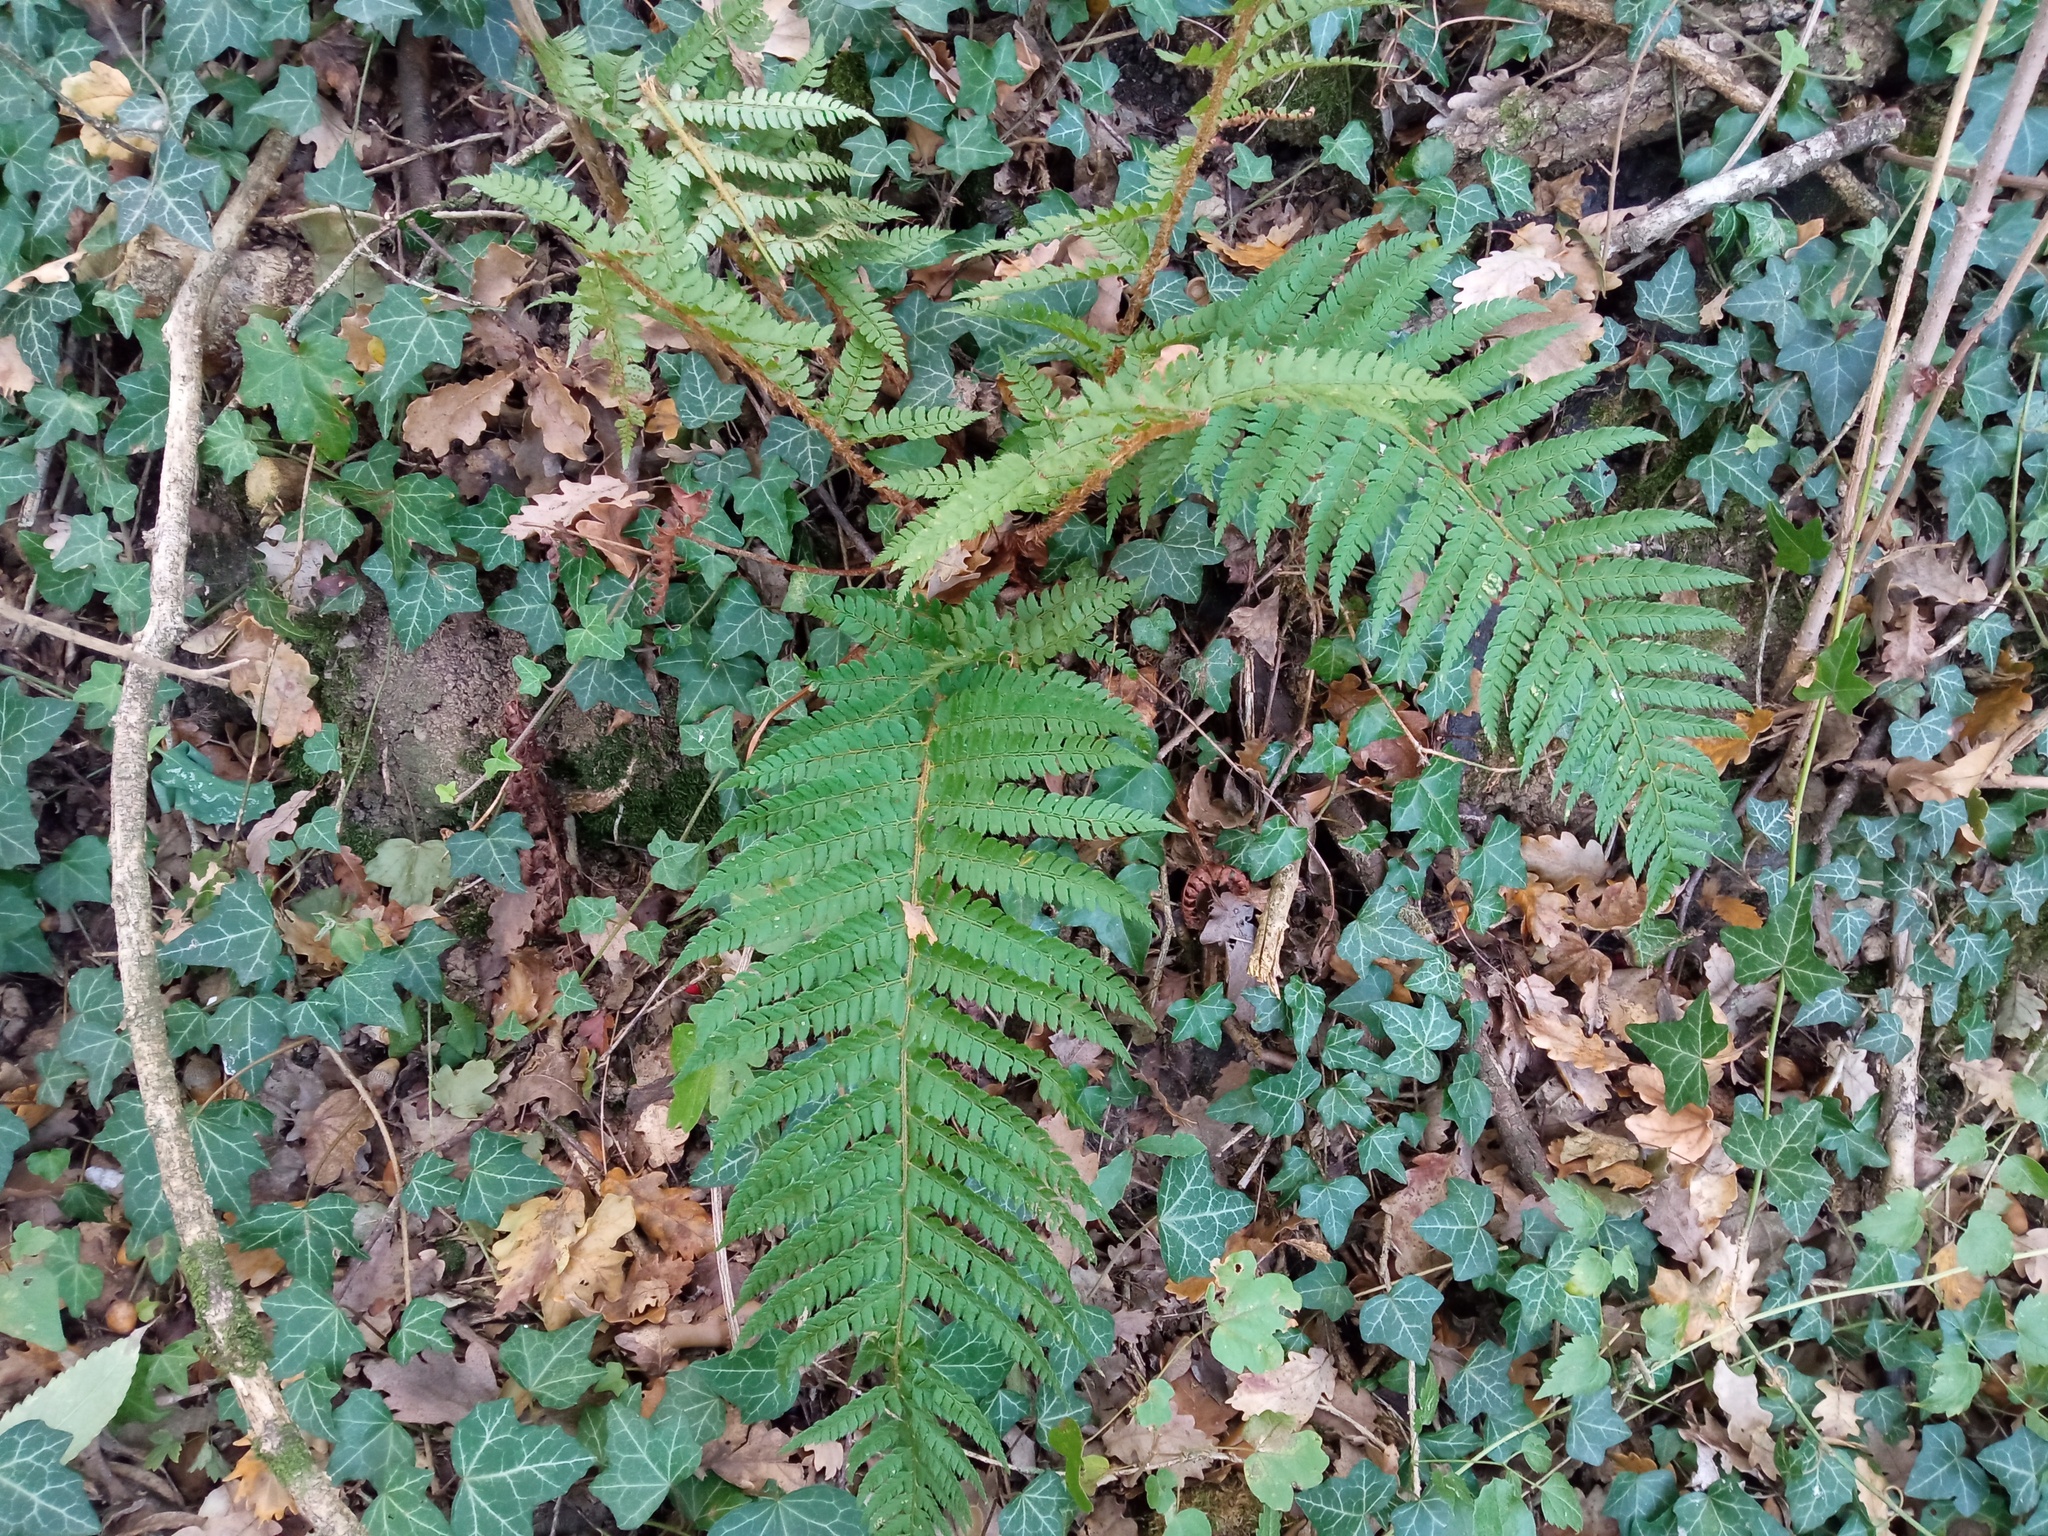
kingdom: Plantae
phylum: Tracheophyta
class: Polypodiopsida
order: Polypodiales
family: Dryopteridaceae
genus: Polystichum
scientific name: Polystichum setiferum
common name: Soft shield-fern
